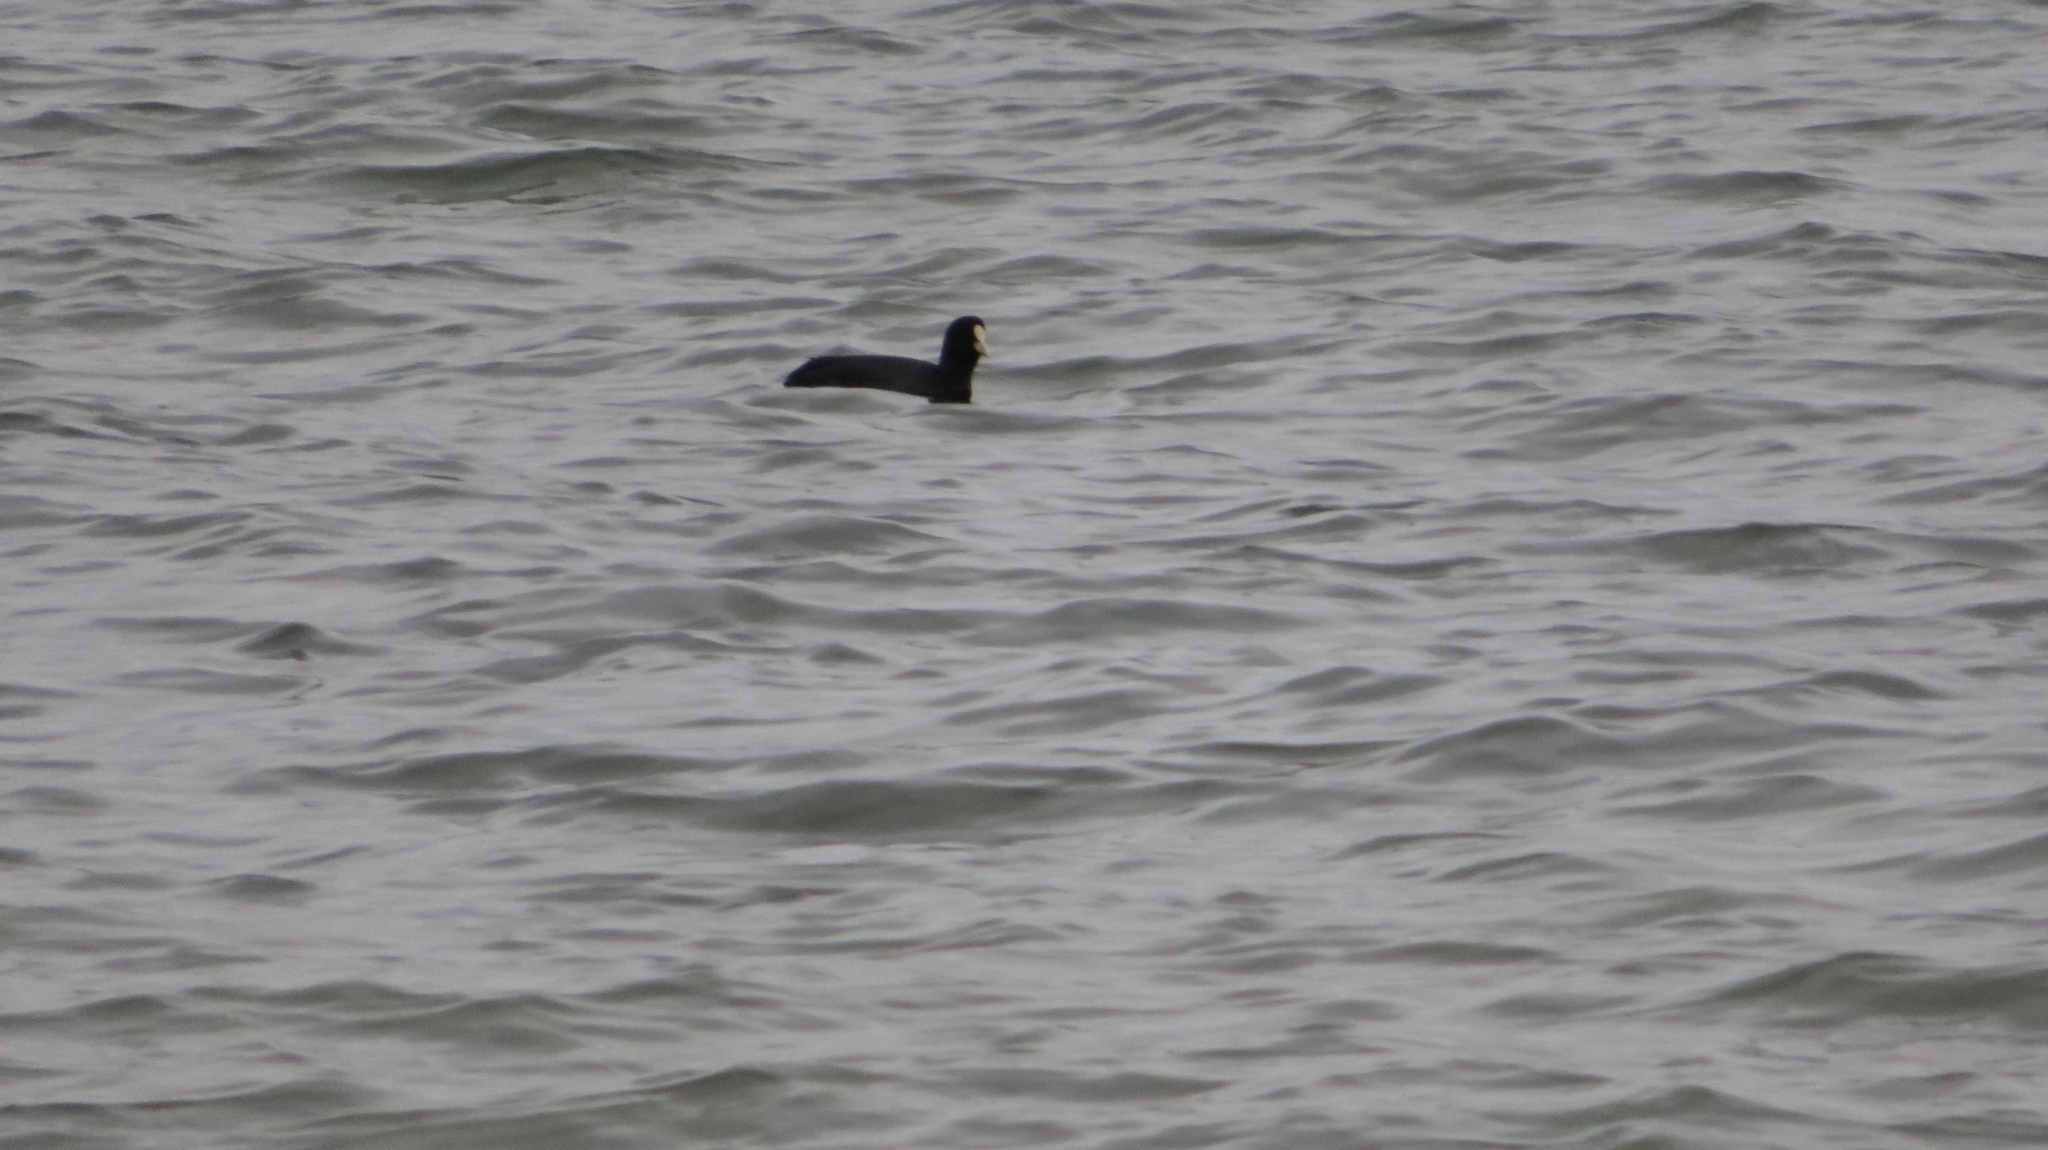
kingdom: Animalia
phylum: Chordata
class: Aves
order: Gruiformes
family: Rallidae
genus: Fulica
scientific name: Fulica atra
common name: Eurasian coot
